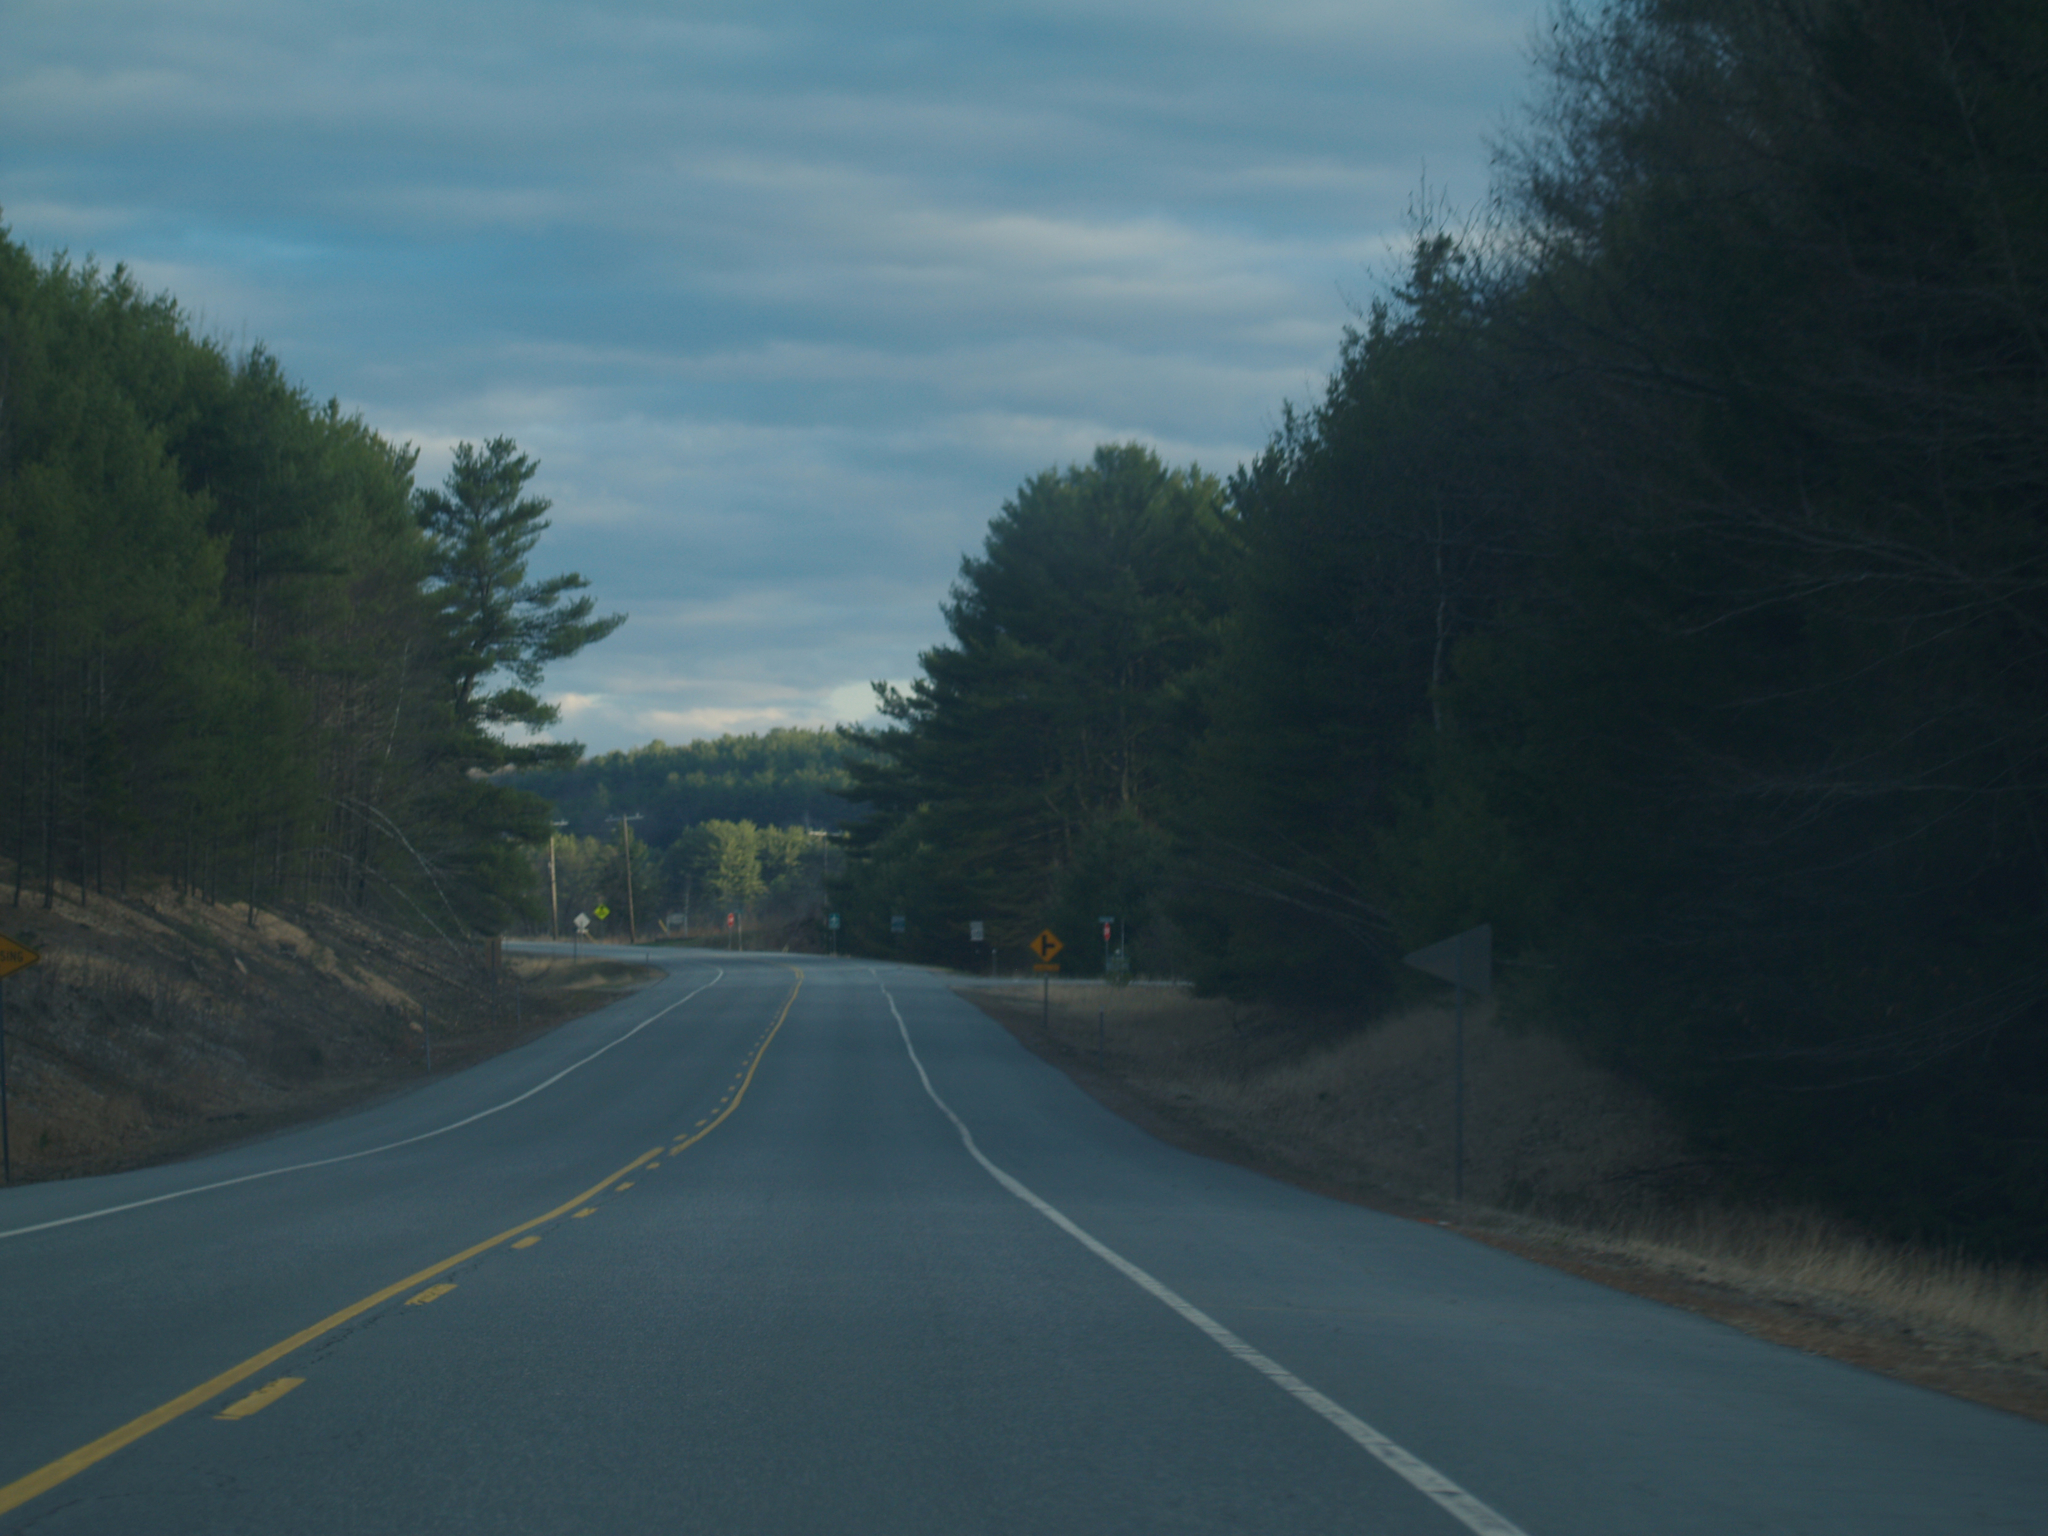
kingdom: Plantae
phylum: Tracheophyta
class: Pinopsida
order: Pinales
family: Pinaceae
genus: Pinus
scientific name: Pinus strobus
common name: Weymouth pine
